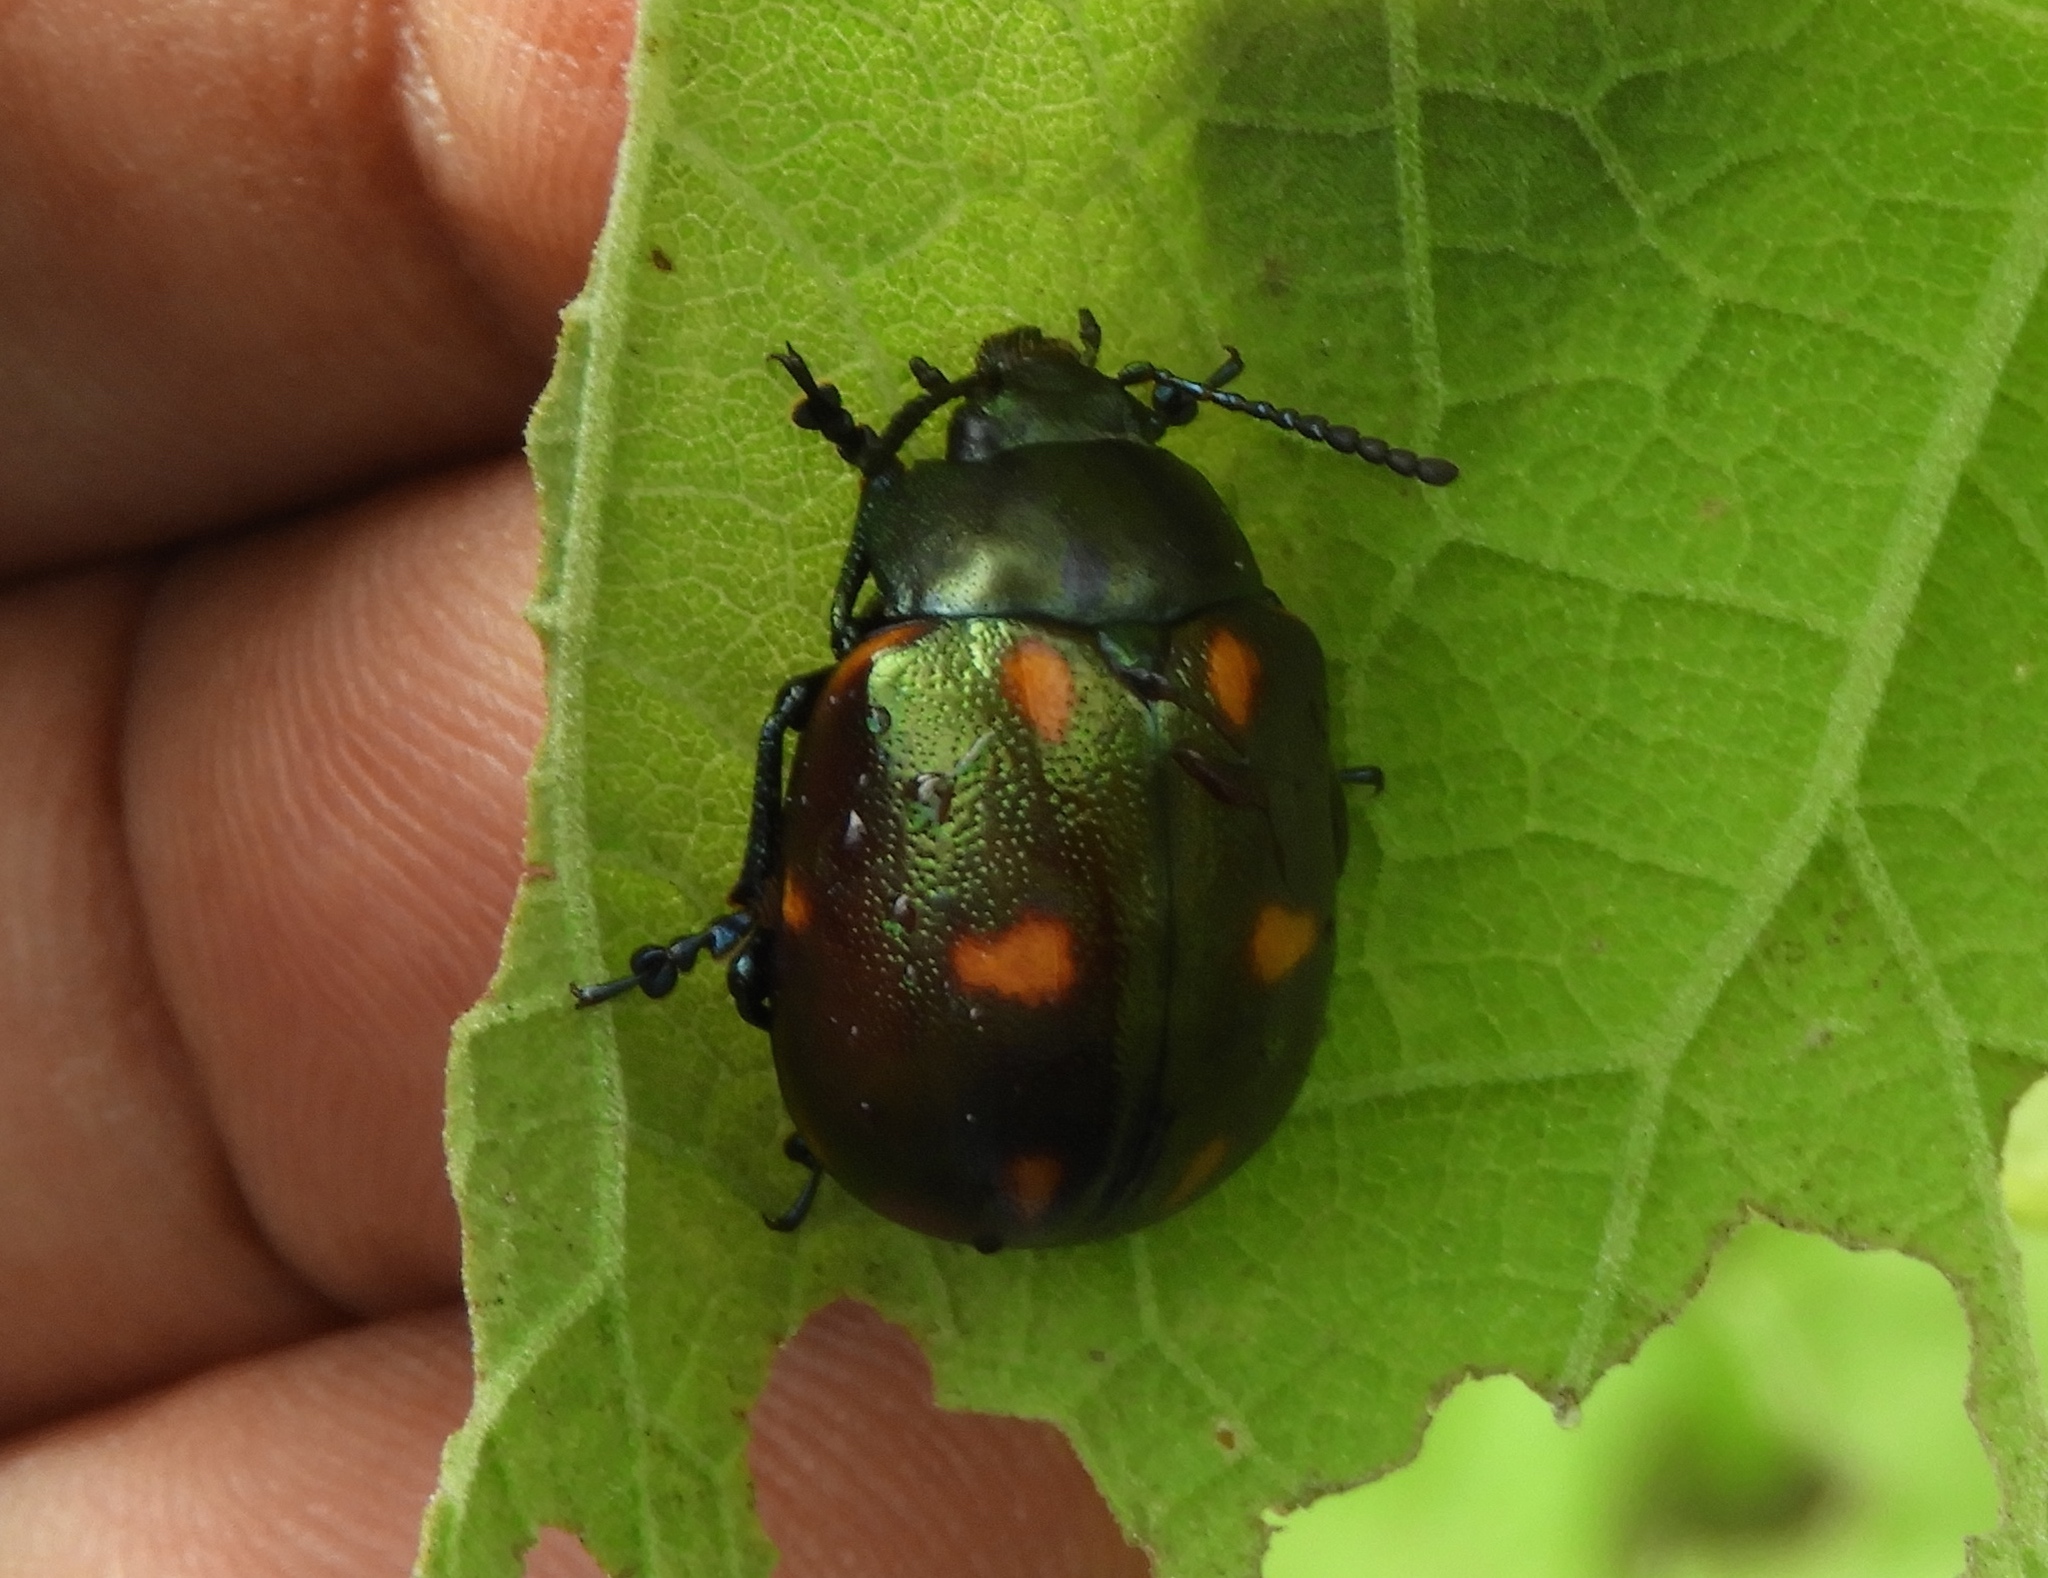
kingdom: Animalia
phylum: Arthropoda
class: Insecta
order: Coleoptera
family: Chrysomelidae
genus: Leptinotarsa
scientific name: Leptinotarsa behrensi
